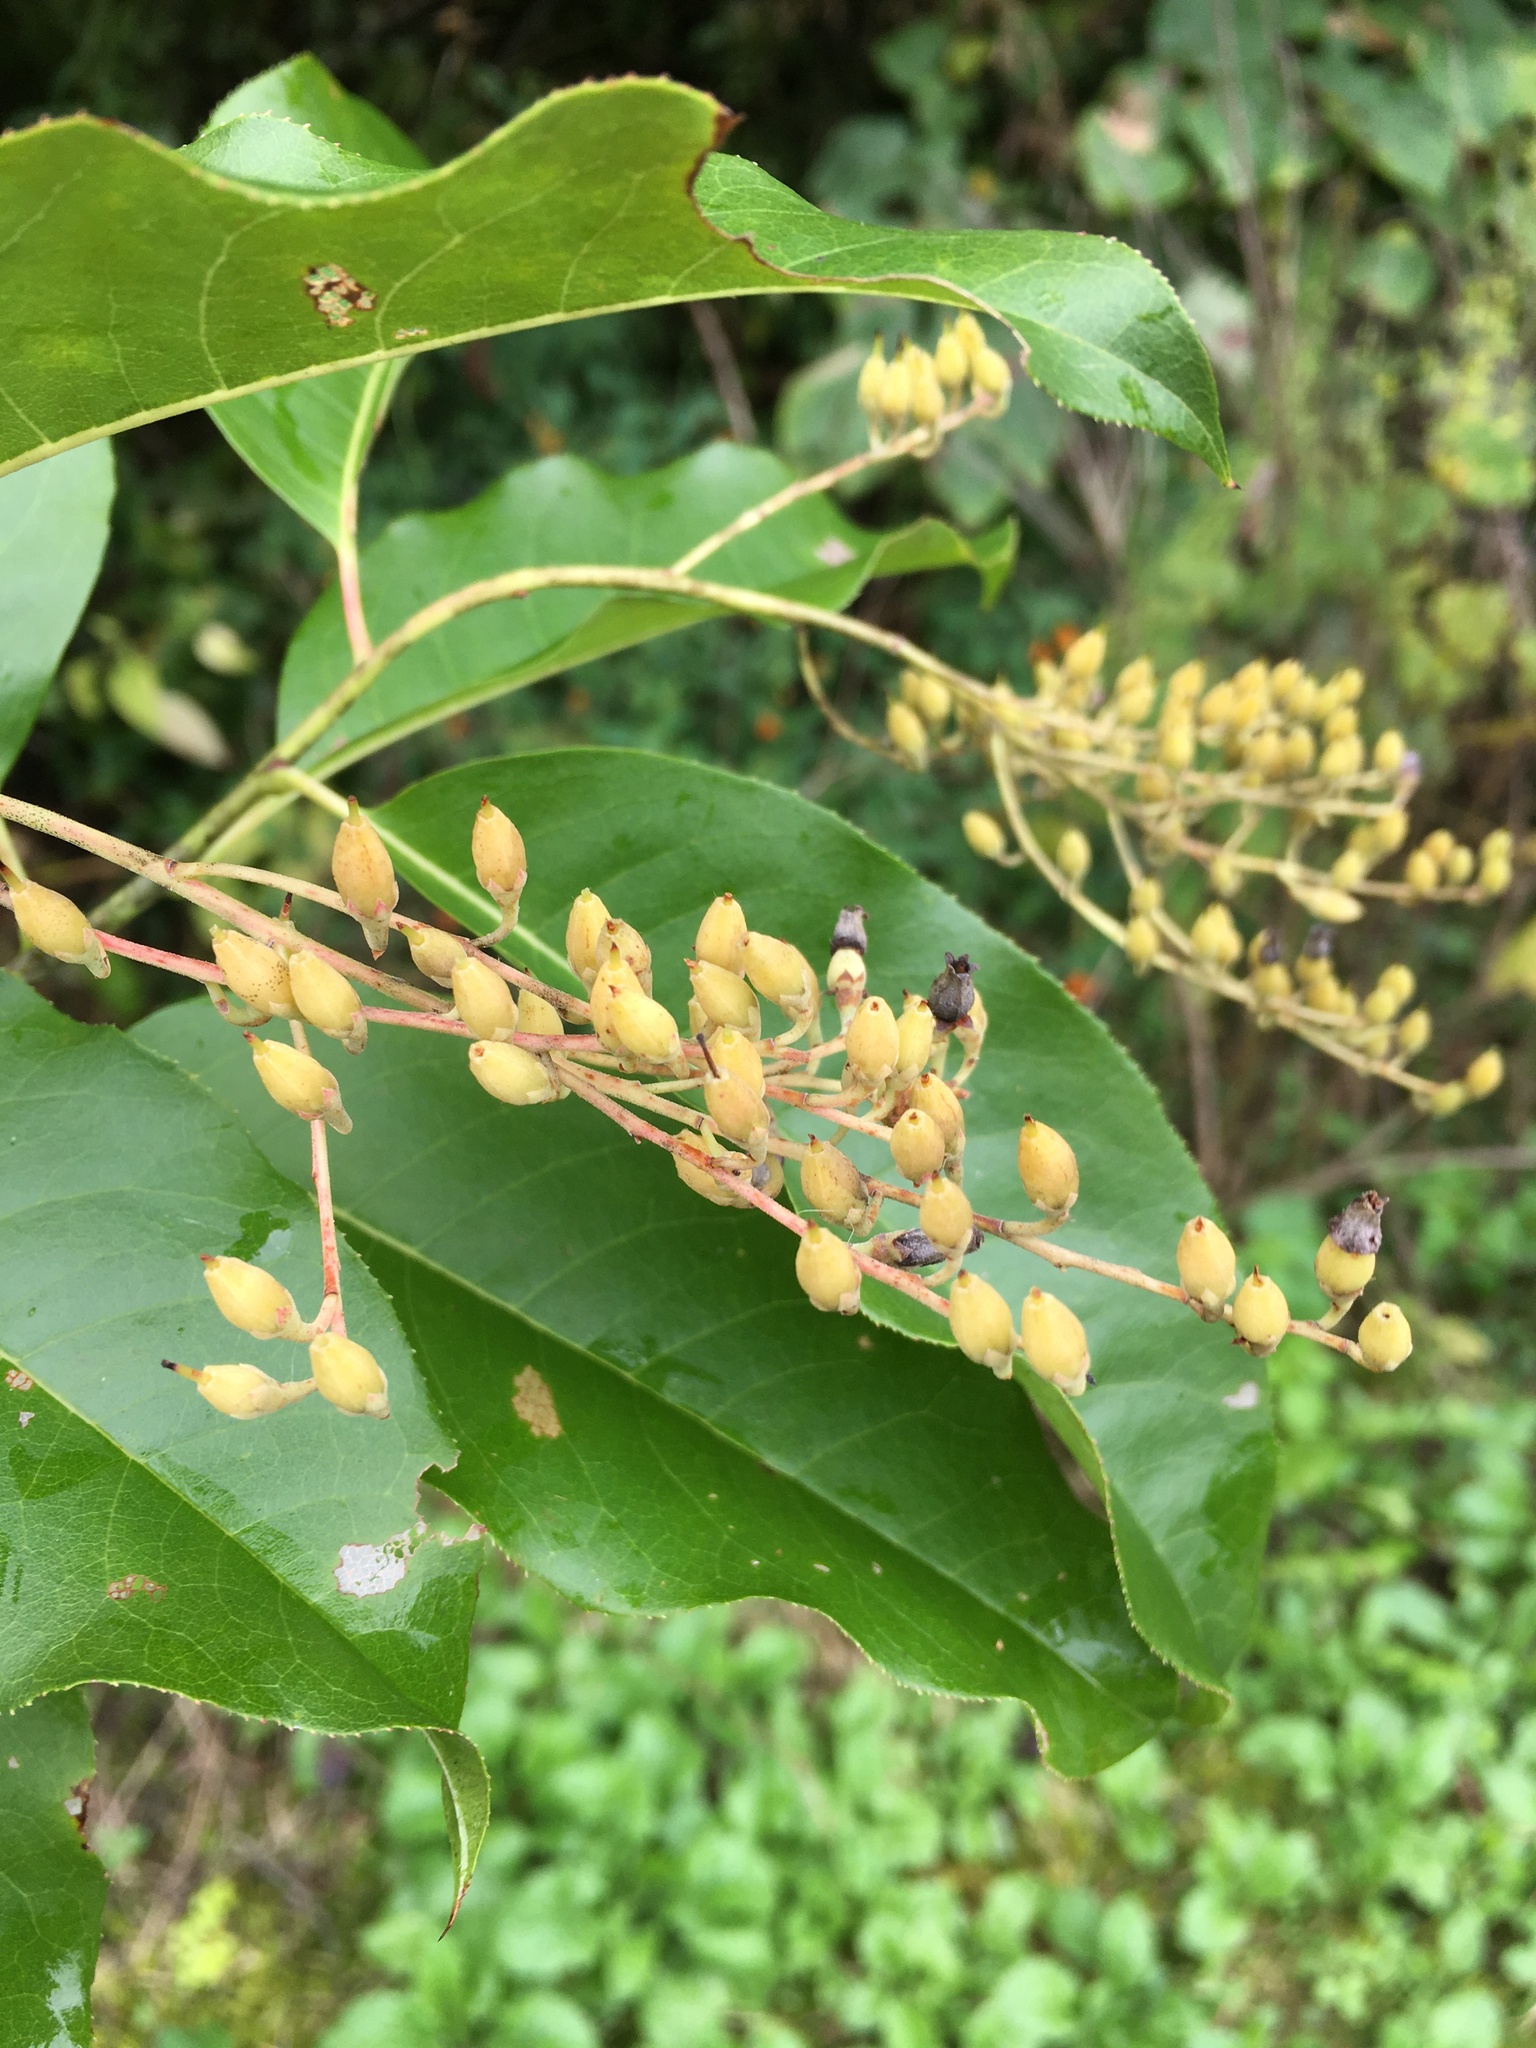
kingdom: Plantae
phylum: Tracheophyta
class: Magnoliopsida
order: Ericales
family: Ericaceae
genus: Oxydendrum
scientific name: Oxydendrum arboreum
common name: Sourwood
